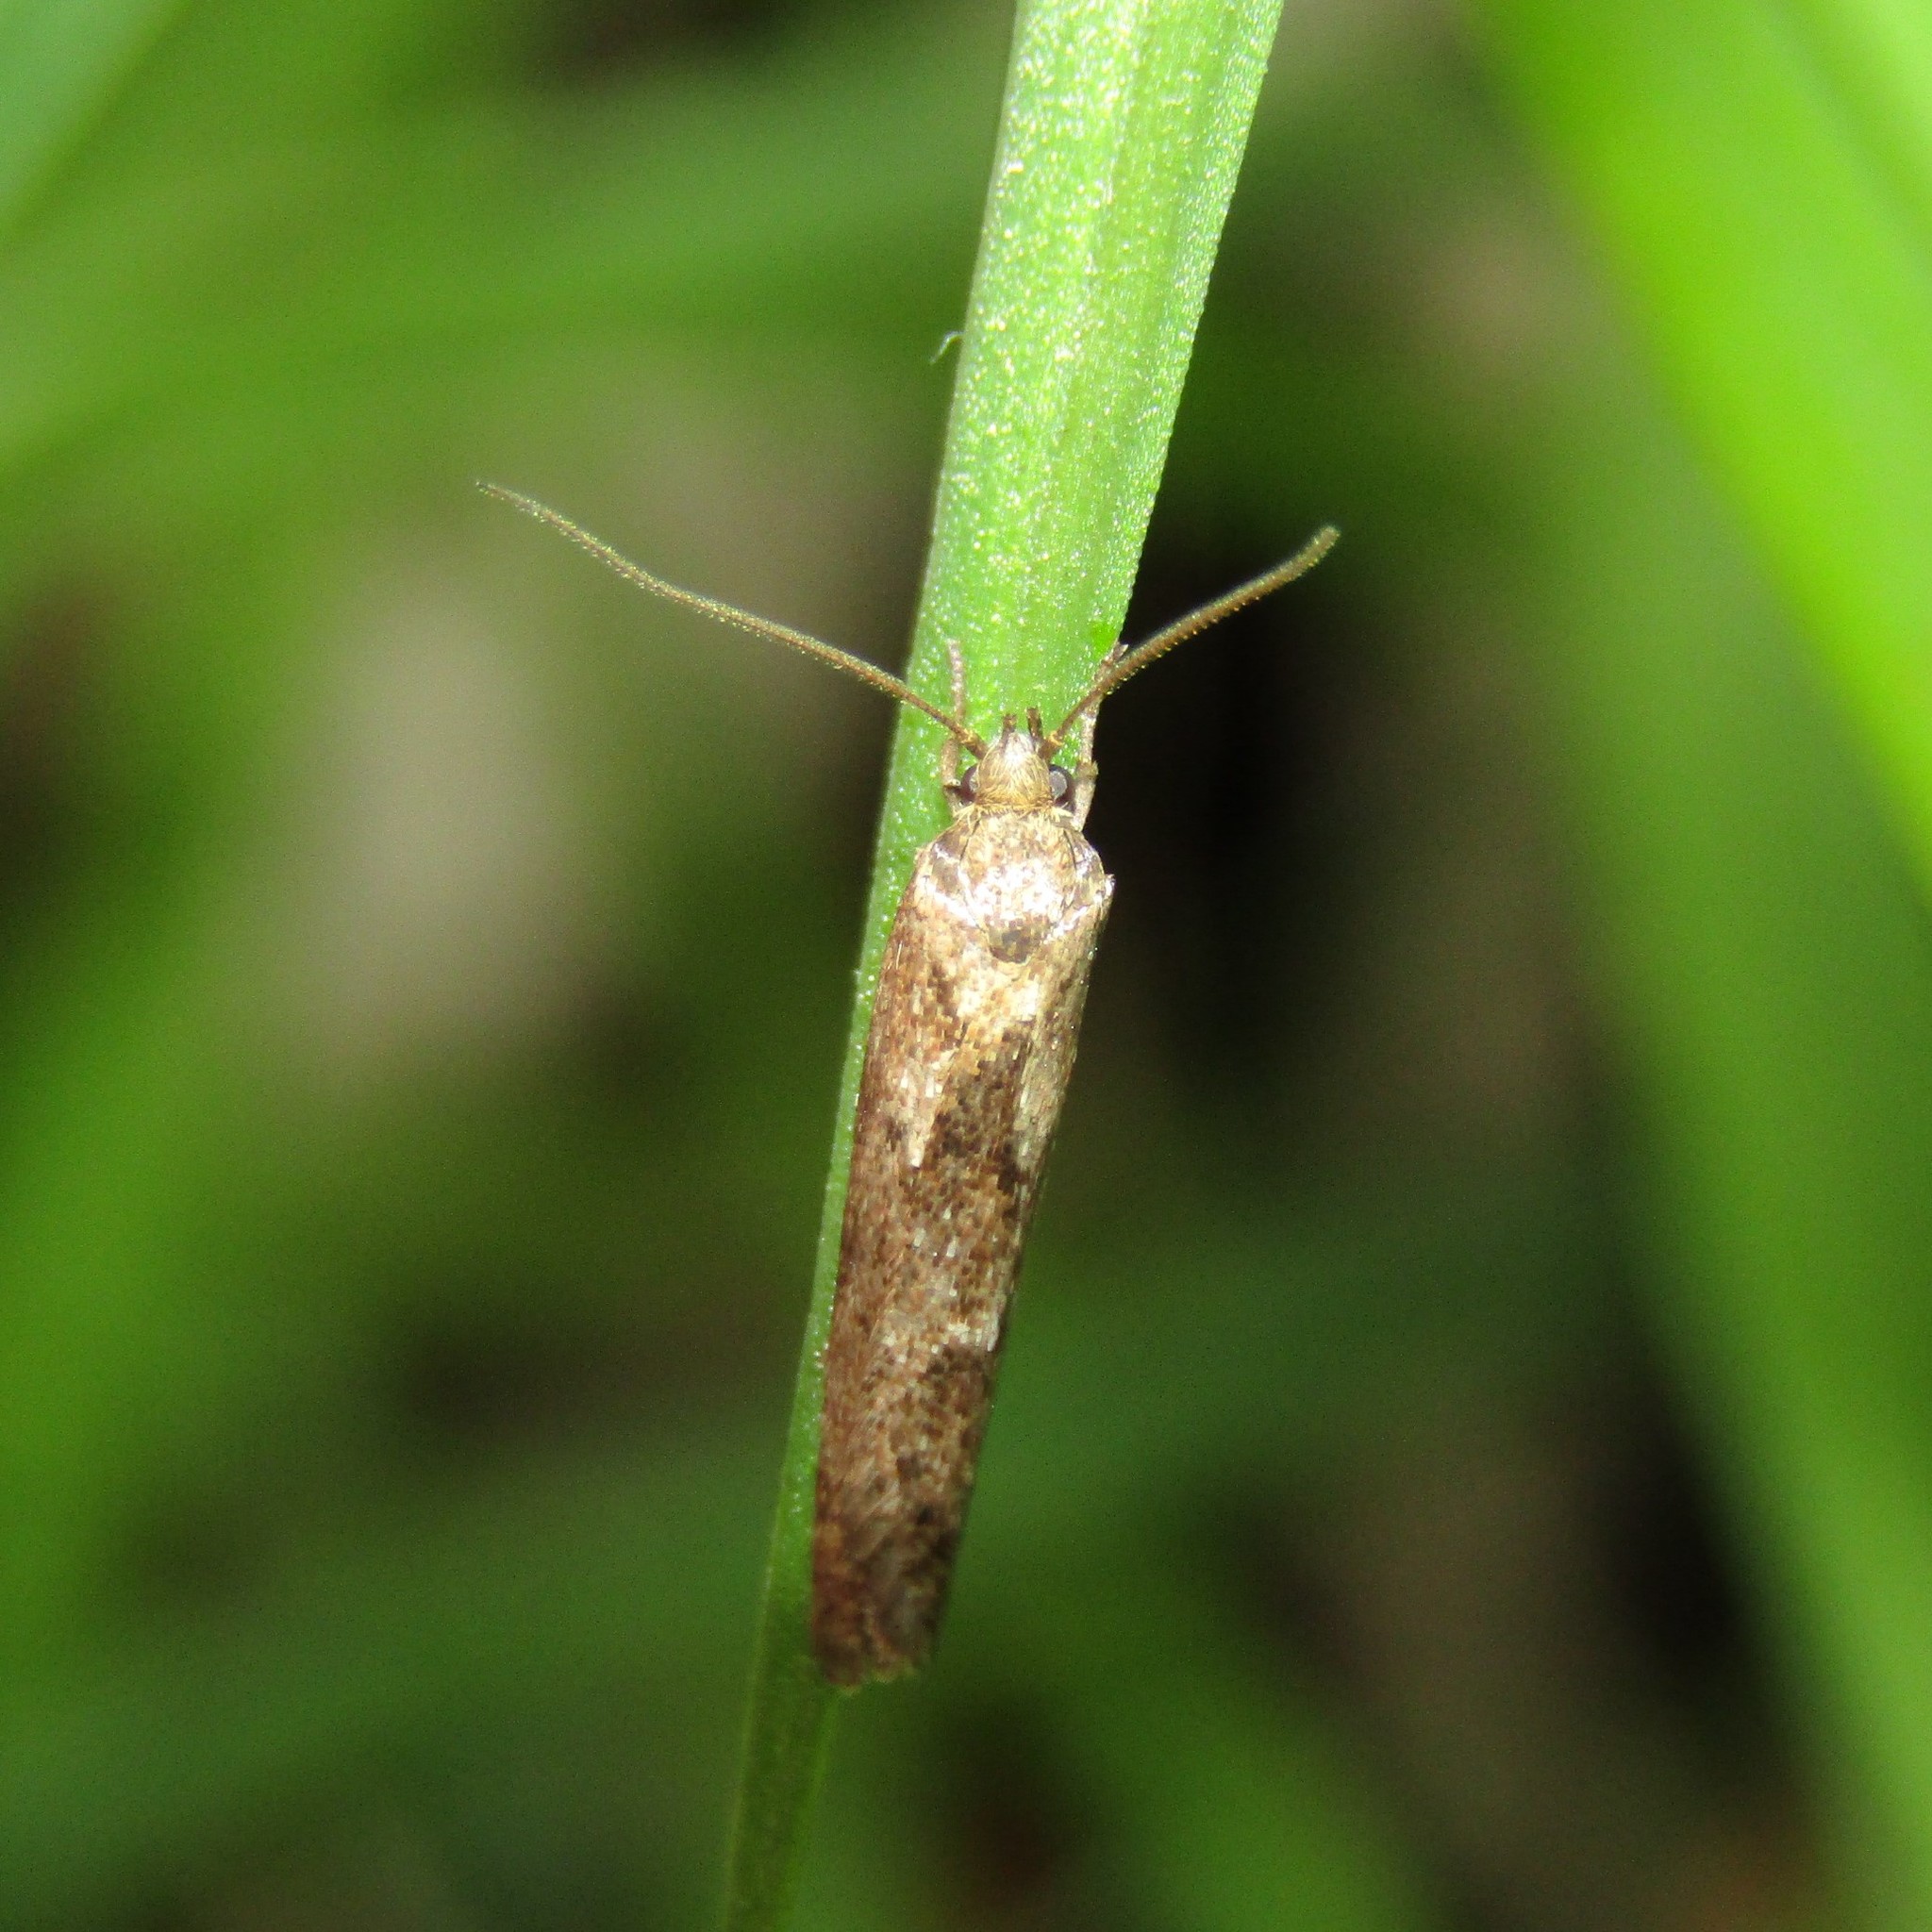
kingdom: Animalia
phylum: Arthropoda
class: Insecta
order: Lepidoptera
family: Oecophoridae
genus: Chersadaula
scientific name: Chersadaula ochrogastra
